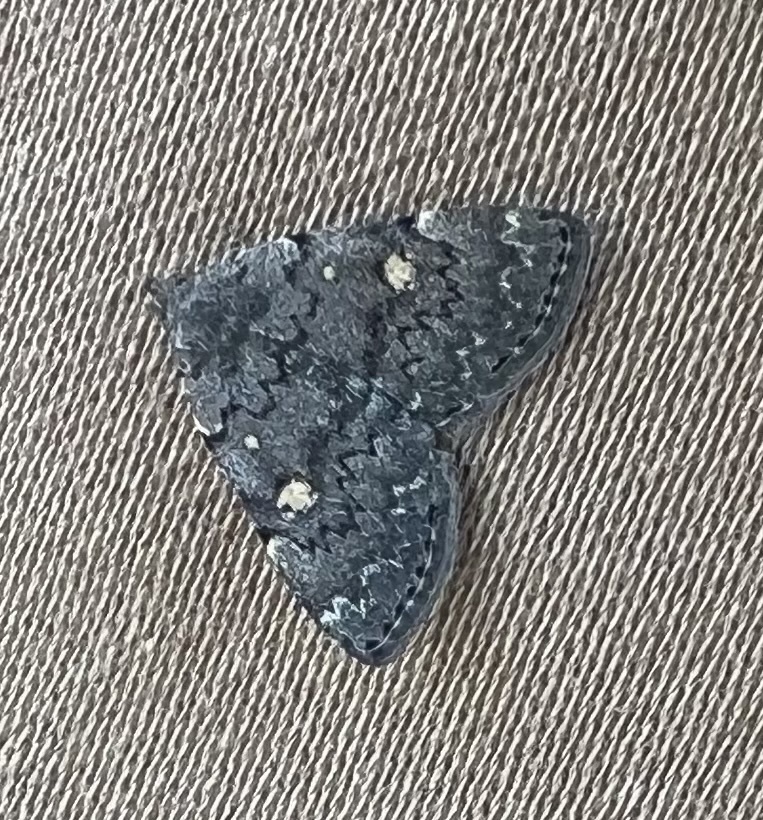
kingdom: Animalia
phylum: Arthropoda
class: Insecta
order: Lepidoptera
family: Erebidae
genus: Idia
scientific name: Idia aemula
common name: Common idia moth
